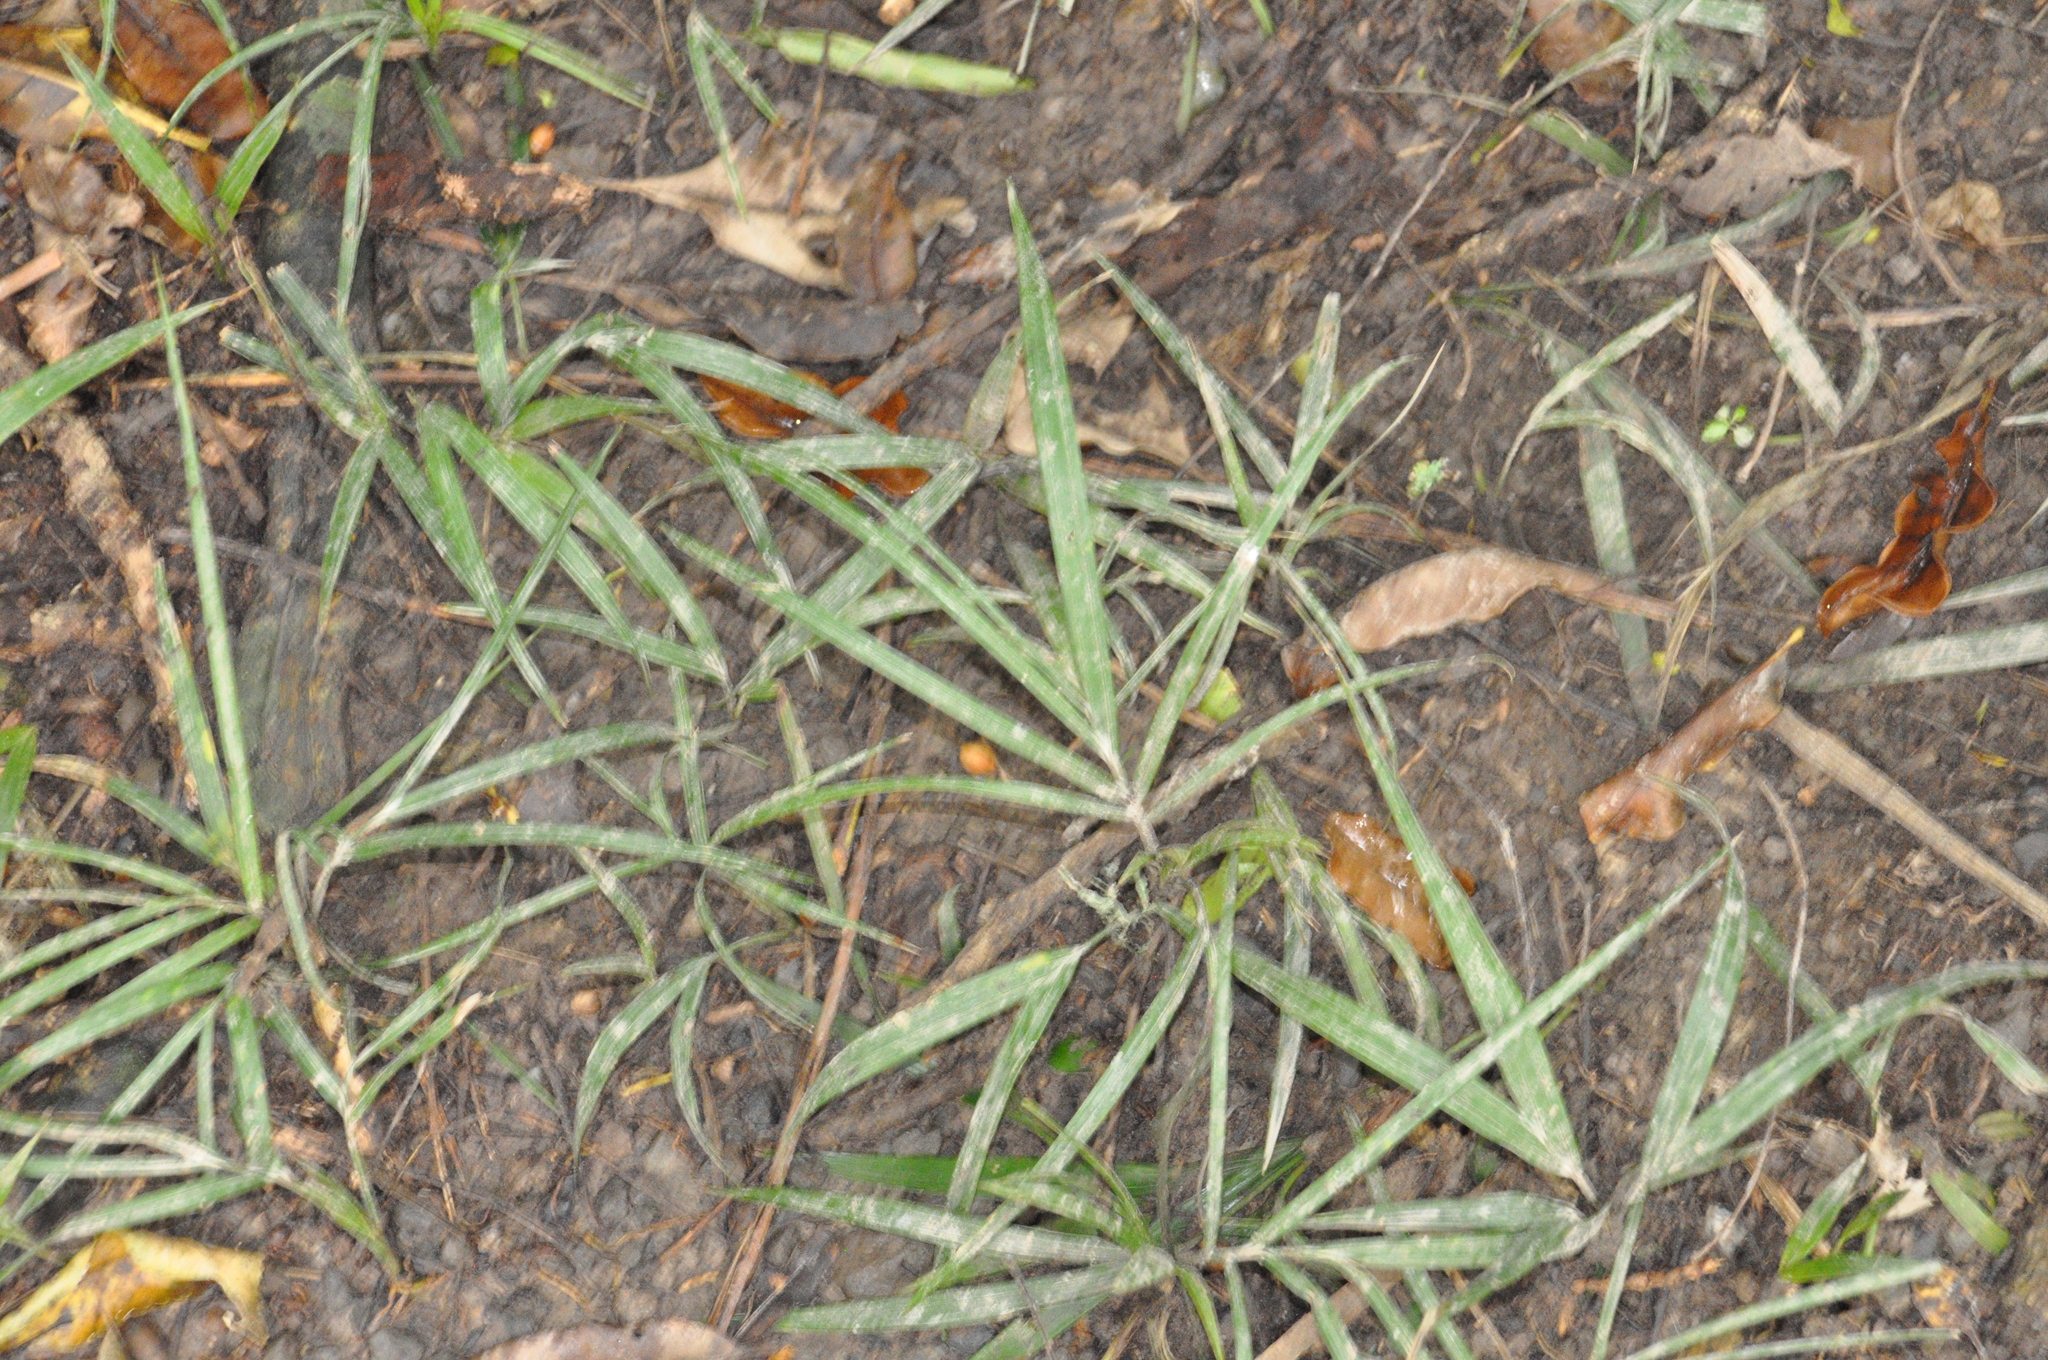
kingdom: Plantae
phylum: Tracheophyta
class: Liliopsida
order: Arecales
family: Arecaceae
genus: Rhopalostylis
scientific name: Rhopalostylis sapida
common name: Feather-duster palm
